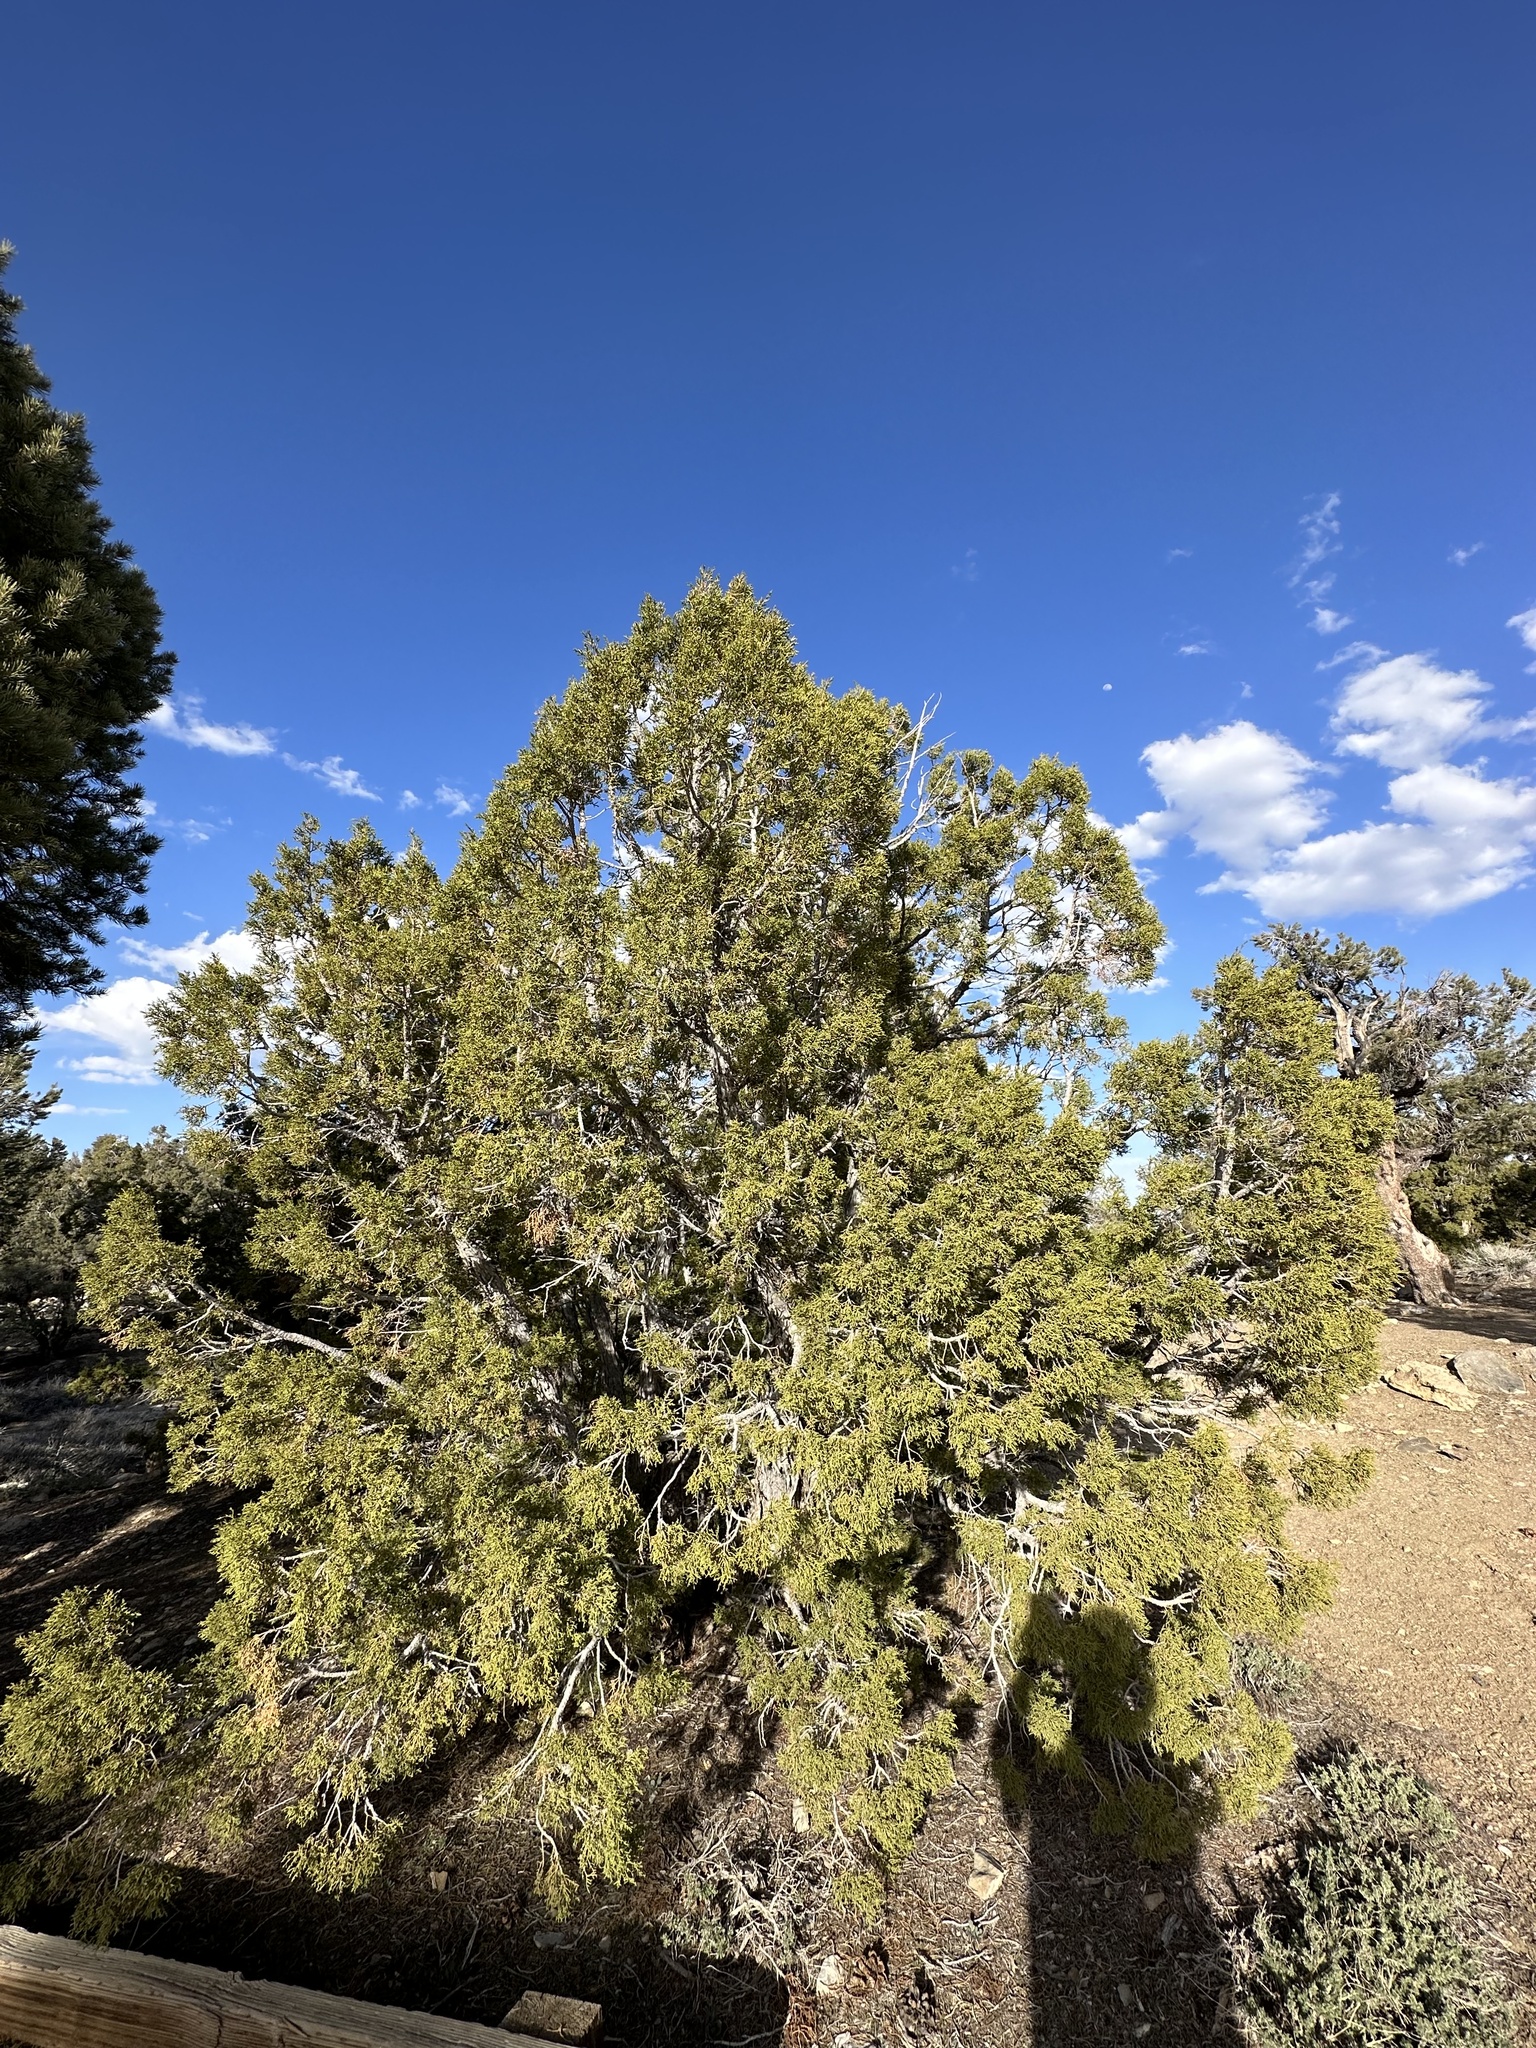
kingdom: Plantae
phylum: Tracheophyta
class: Pinopsida
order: Pinales
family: Cupressaceae
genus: Juniperus
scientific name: Juniperus osteosperma
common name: Utah juniper
